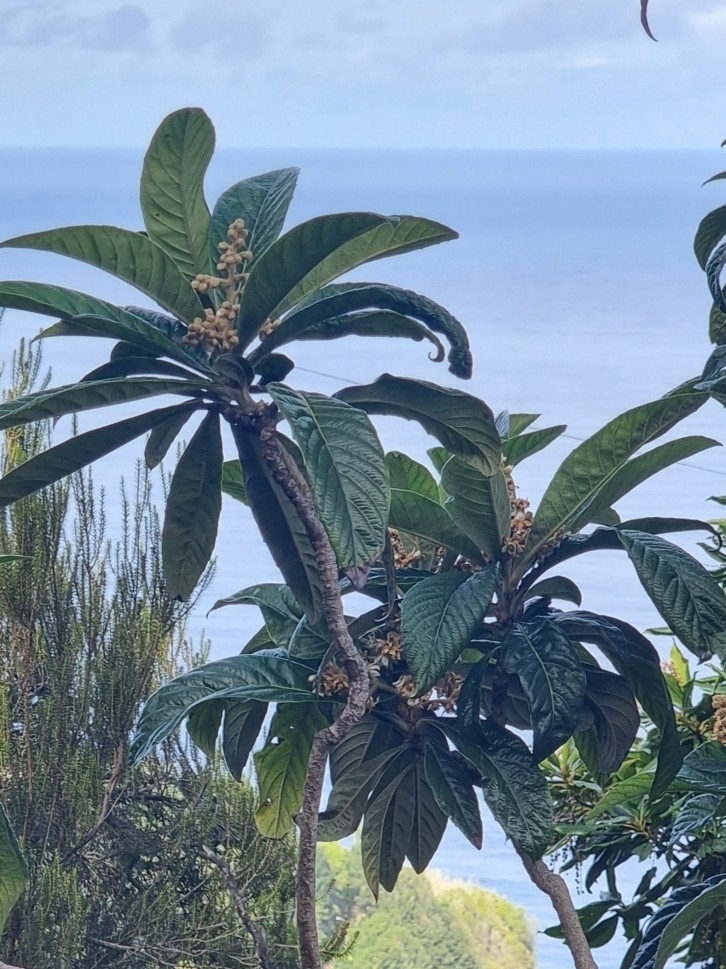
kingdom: Plantae
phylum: Tracheophyta
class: Magnoliopsida
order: Rosales
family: Rosaceae
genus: Rhaphiolepis
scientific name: Rhaphiolepis bibas
